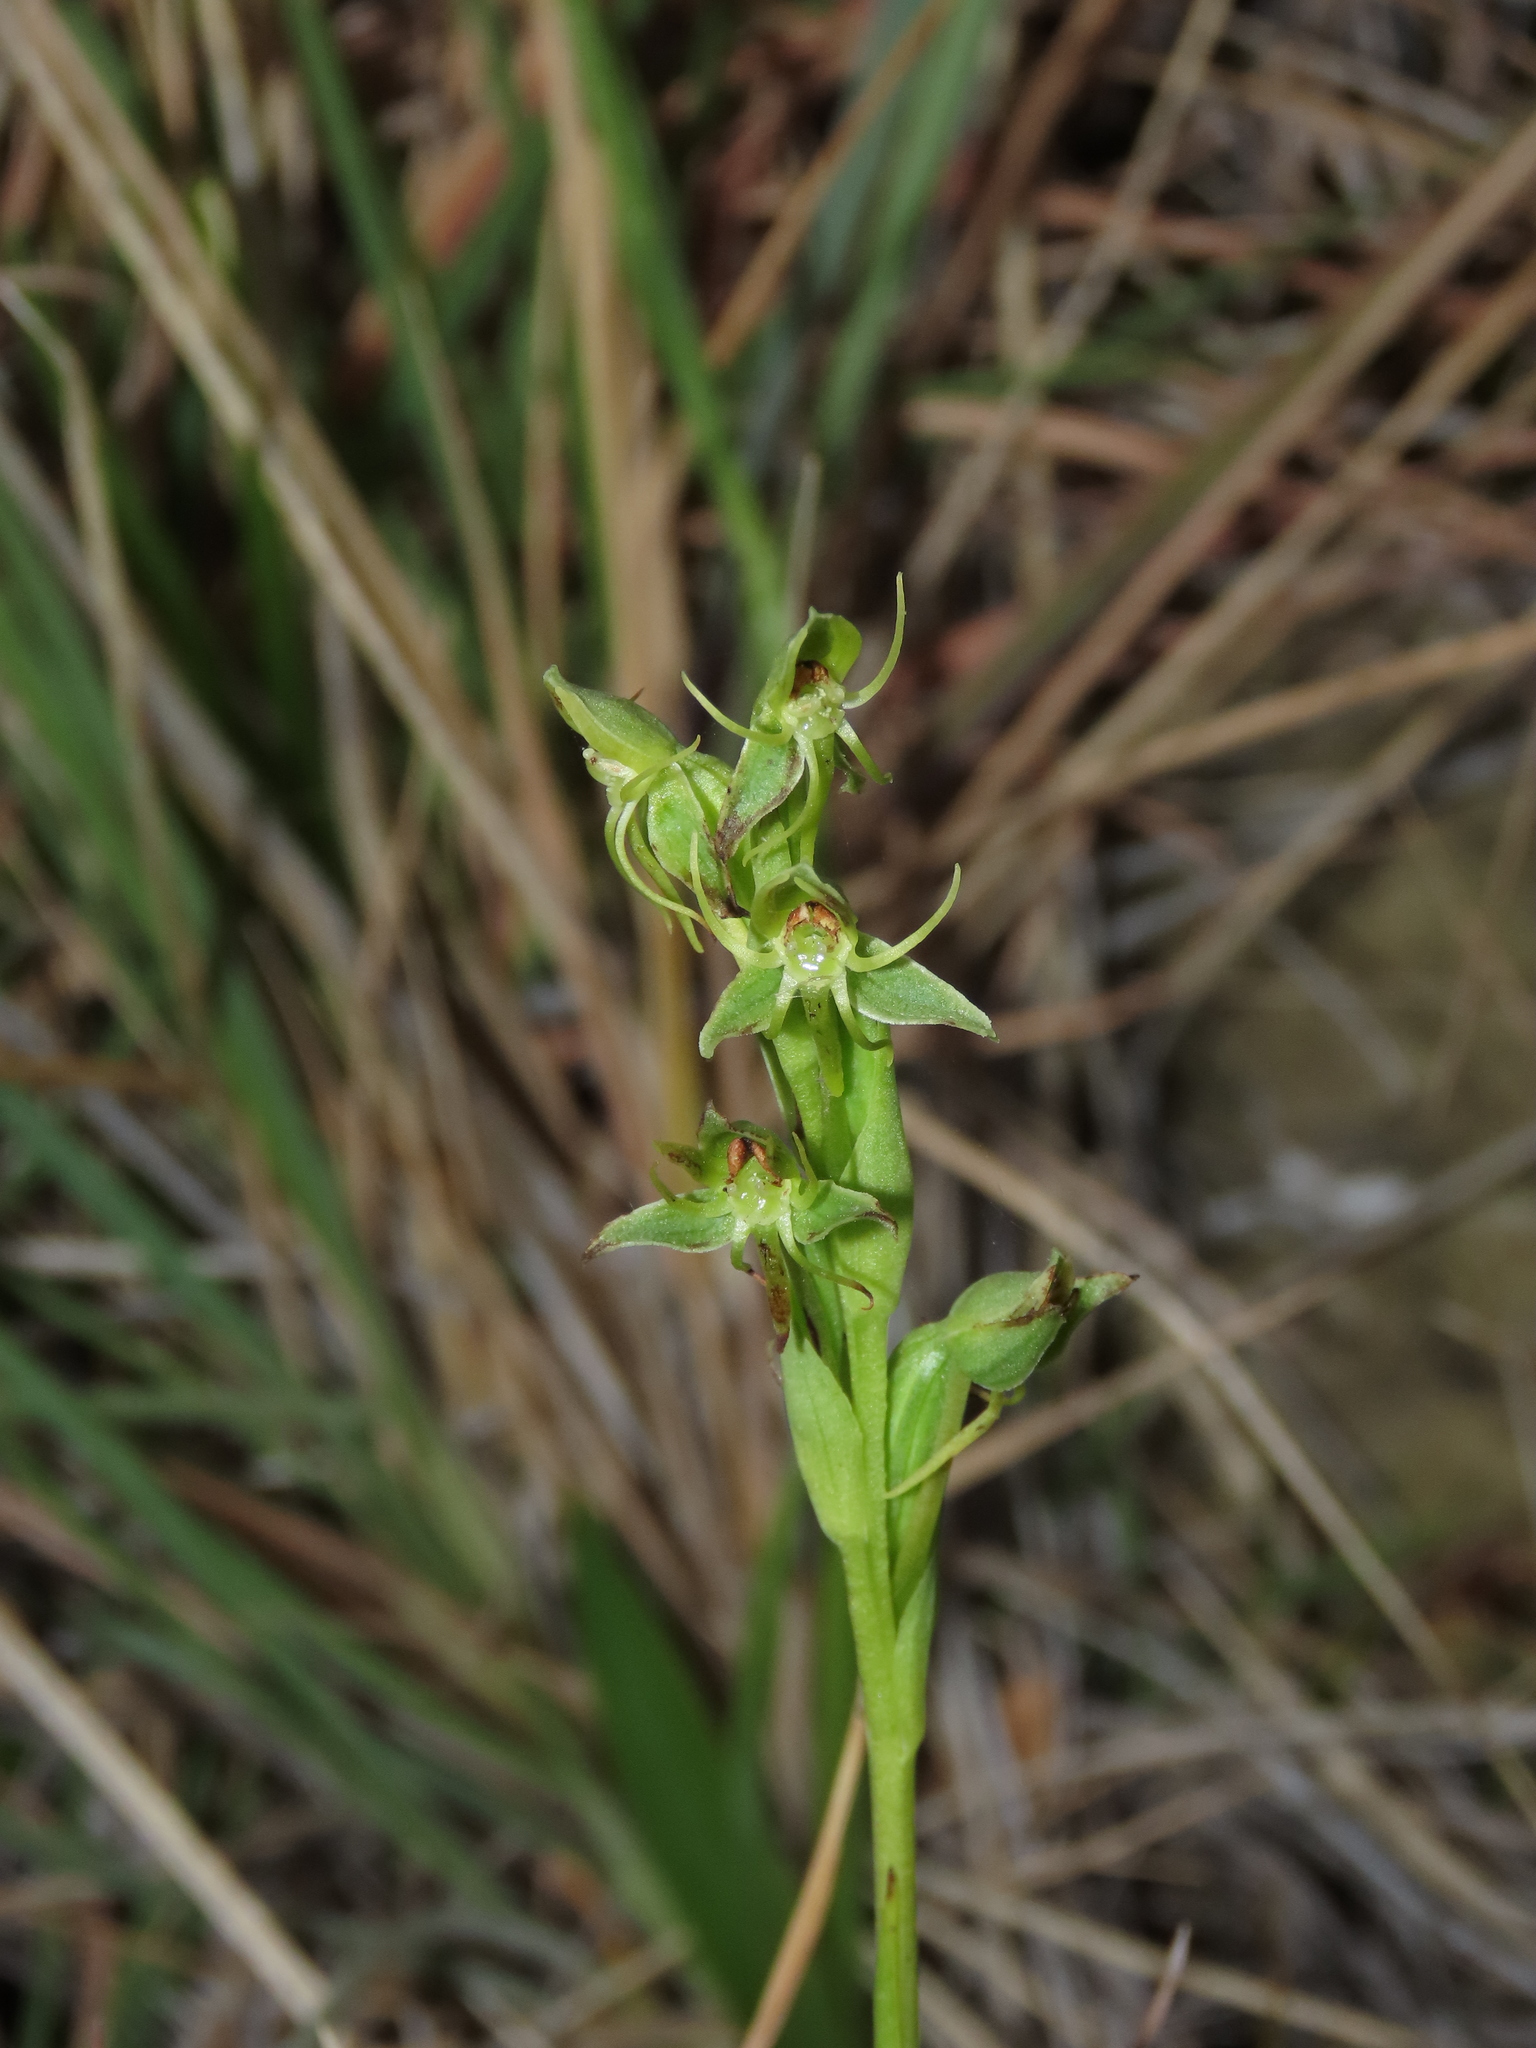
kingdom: Plantae
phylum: Tracheophyta
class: Liliopsida
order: Asparagales
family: Orchidaceae
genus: Habenaria
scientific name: Habenaria pumila
